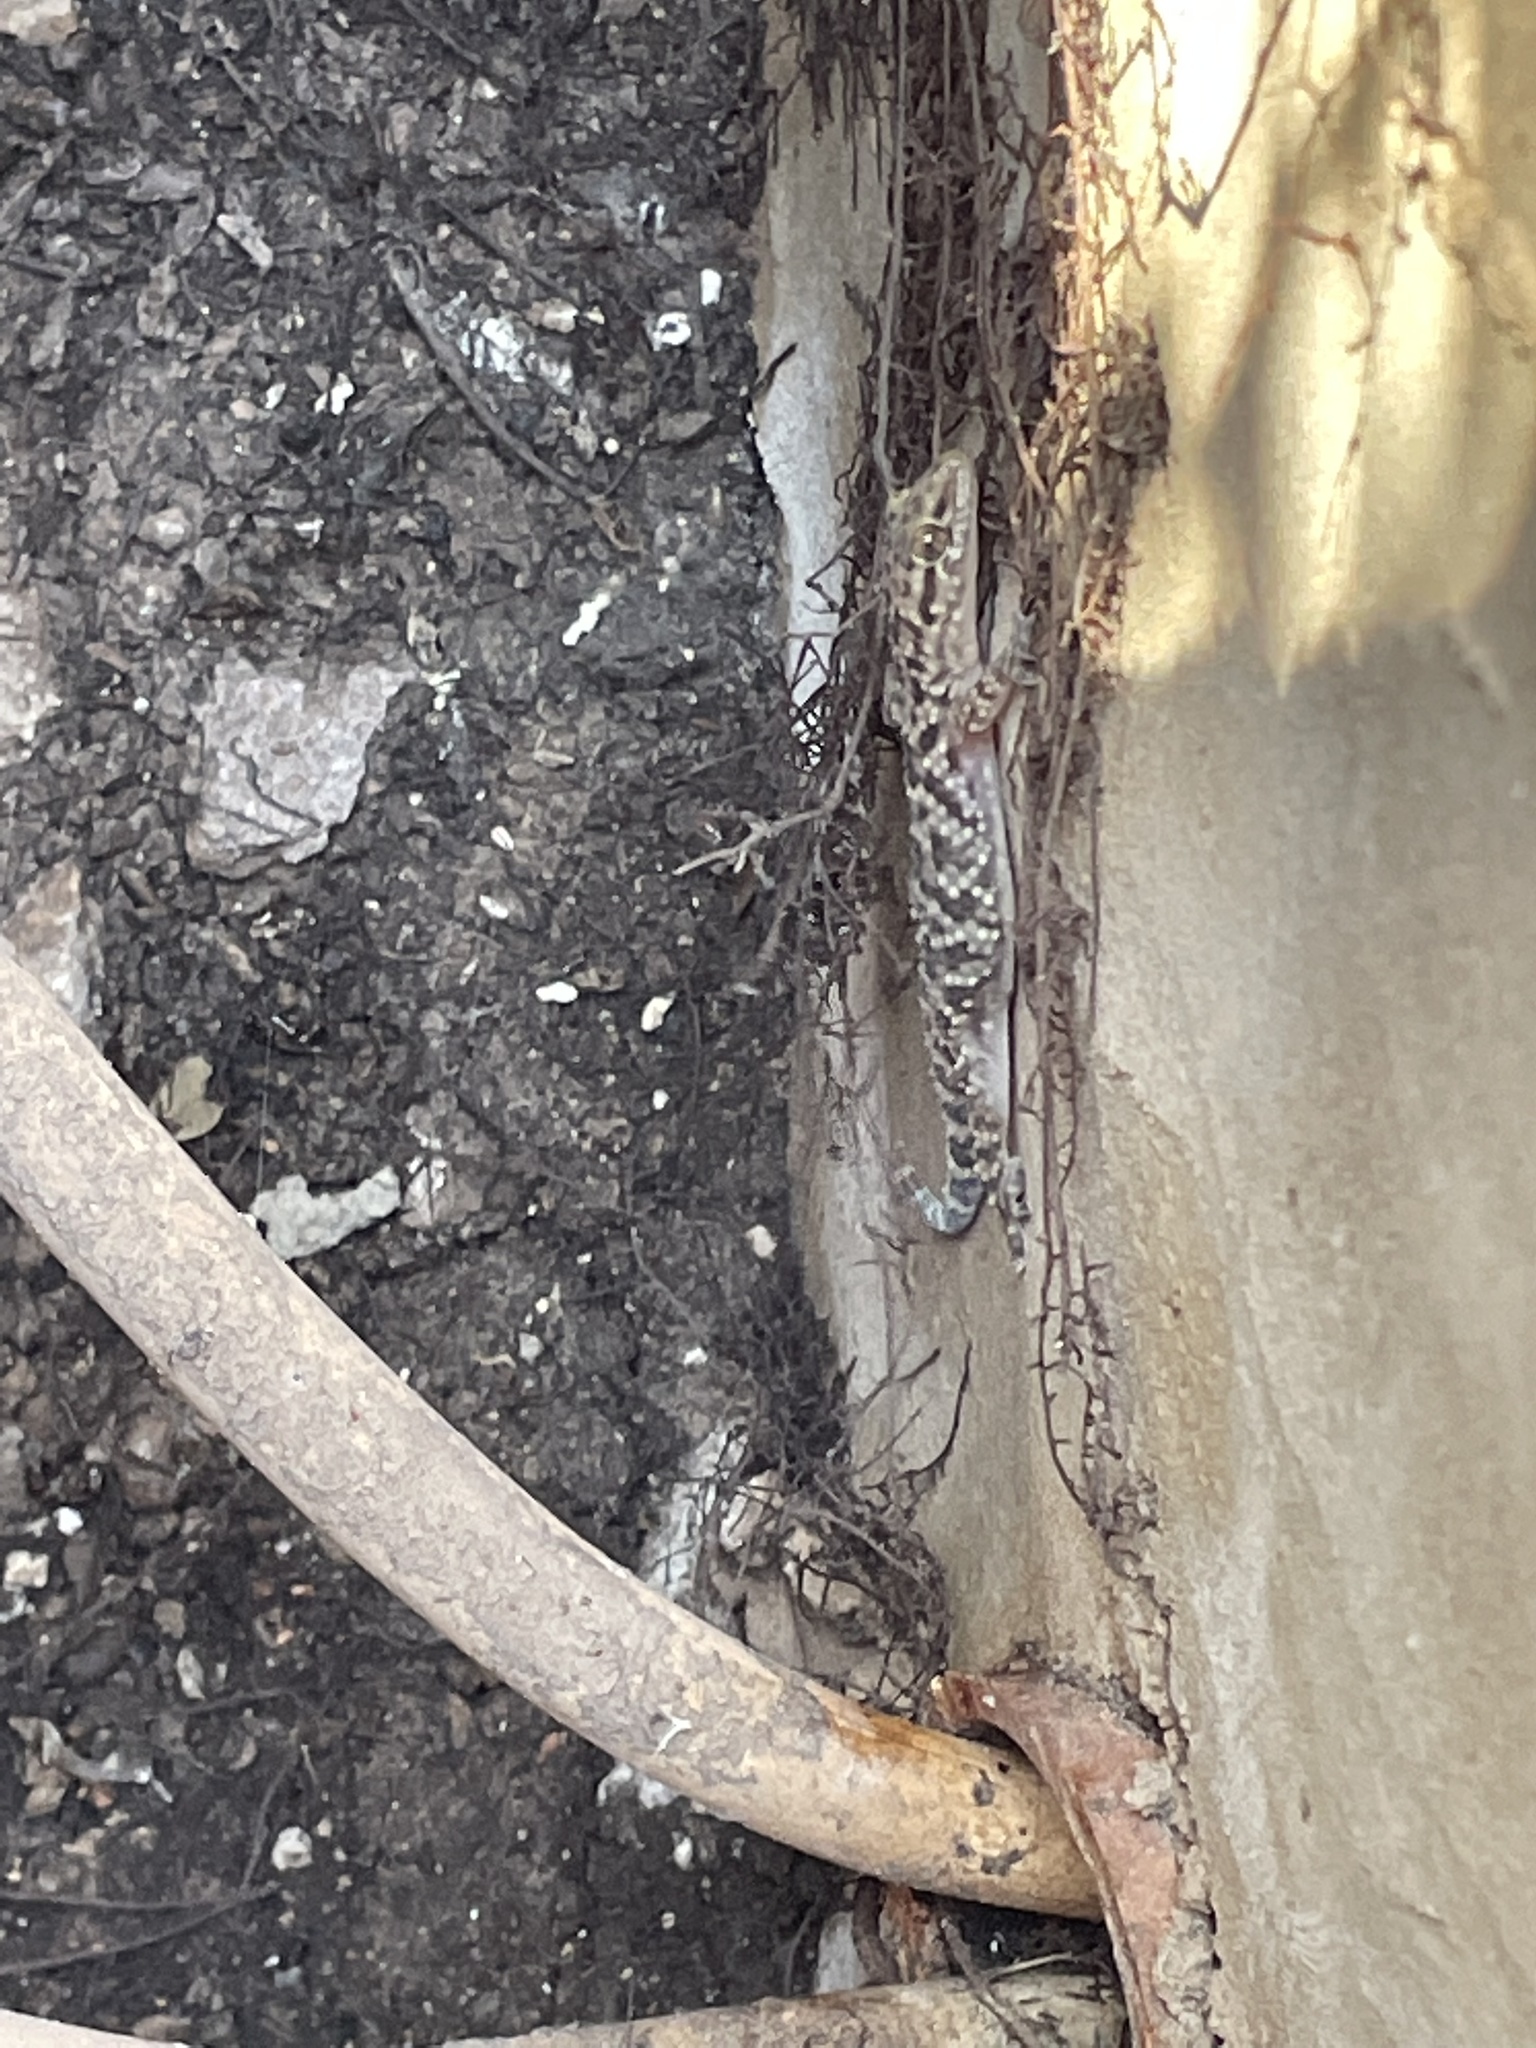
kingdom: Animalia
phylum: Chordata
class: Squamata
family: Gekkonidae
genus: Hemidactylus
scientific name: Hemidactylus turcicus
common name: Turkish gecko
